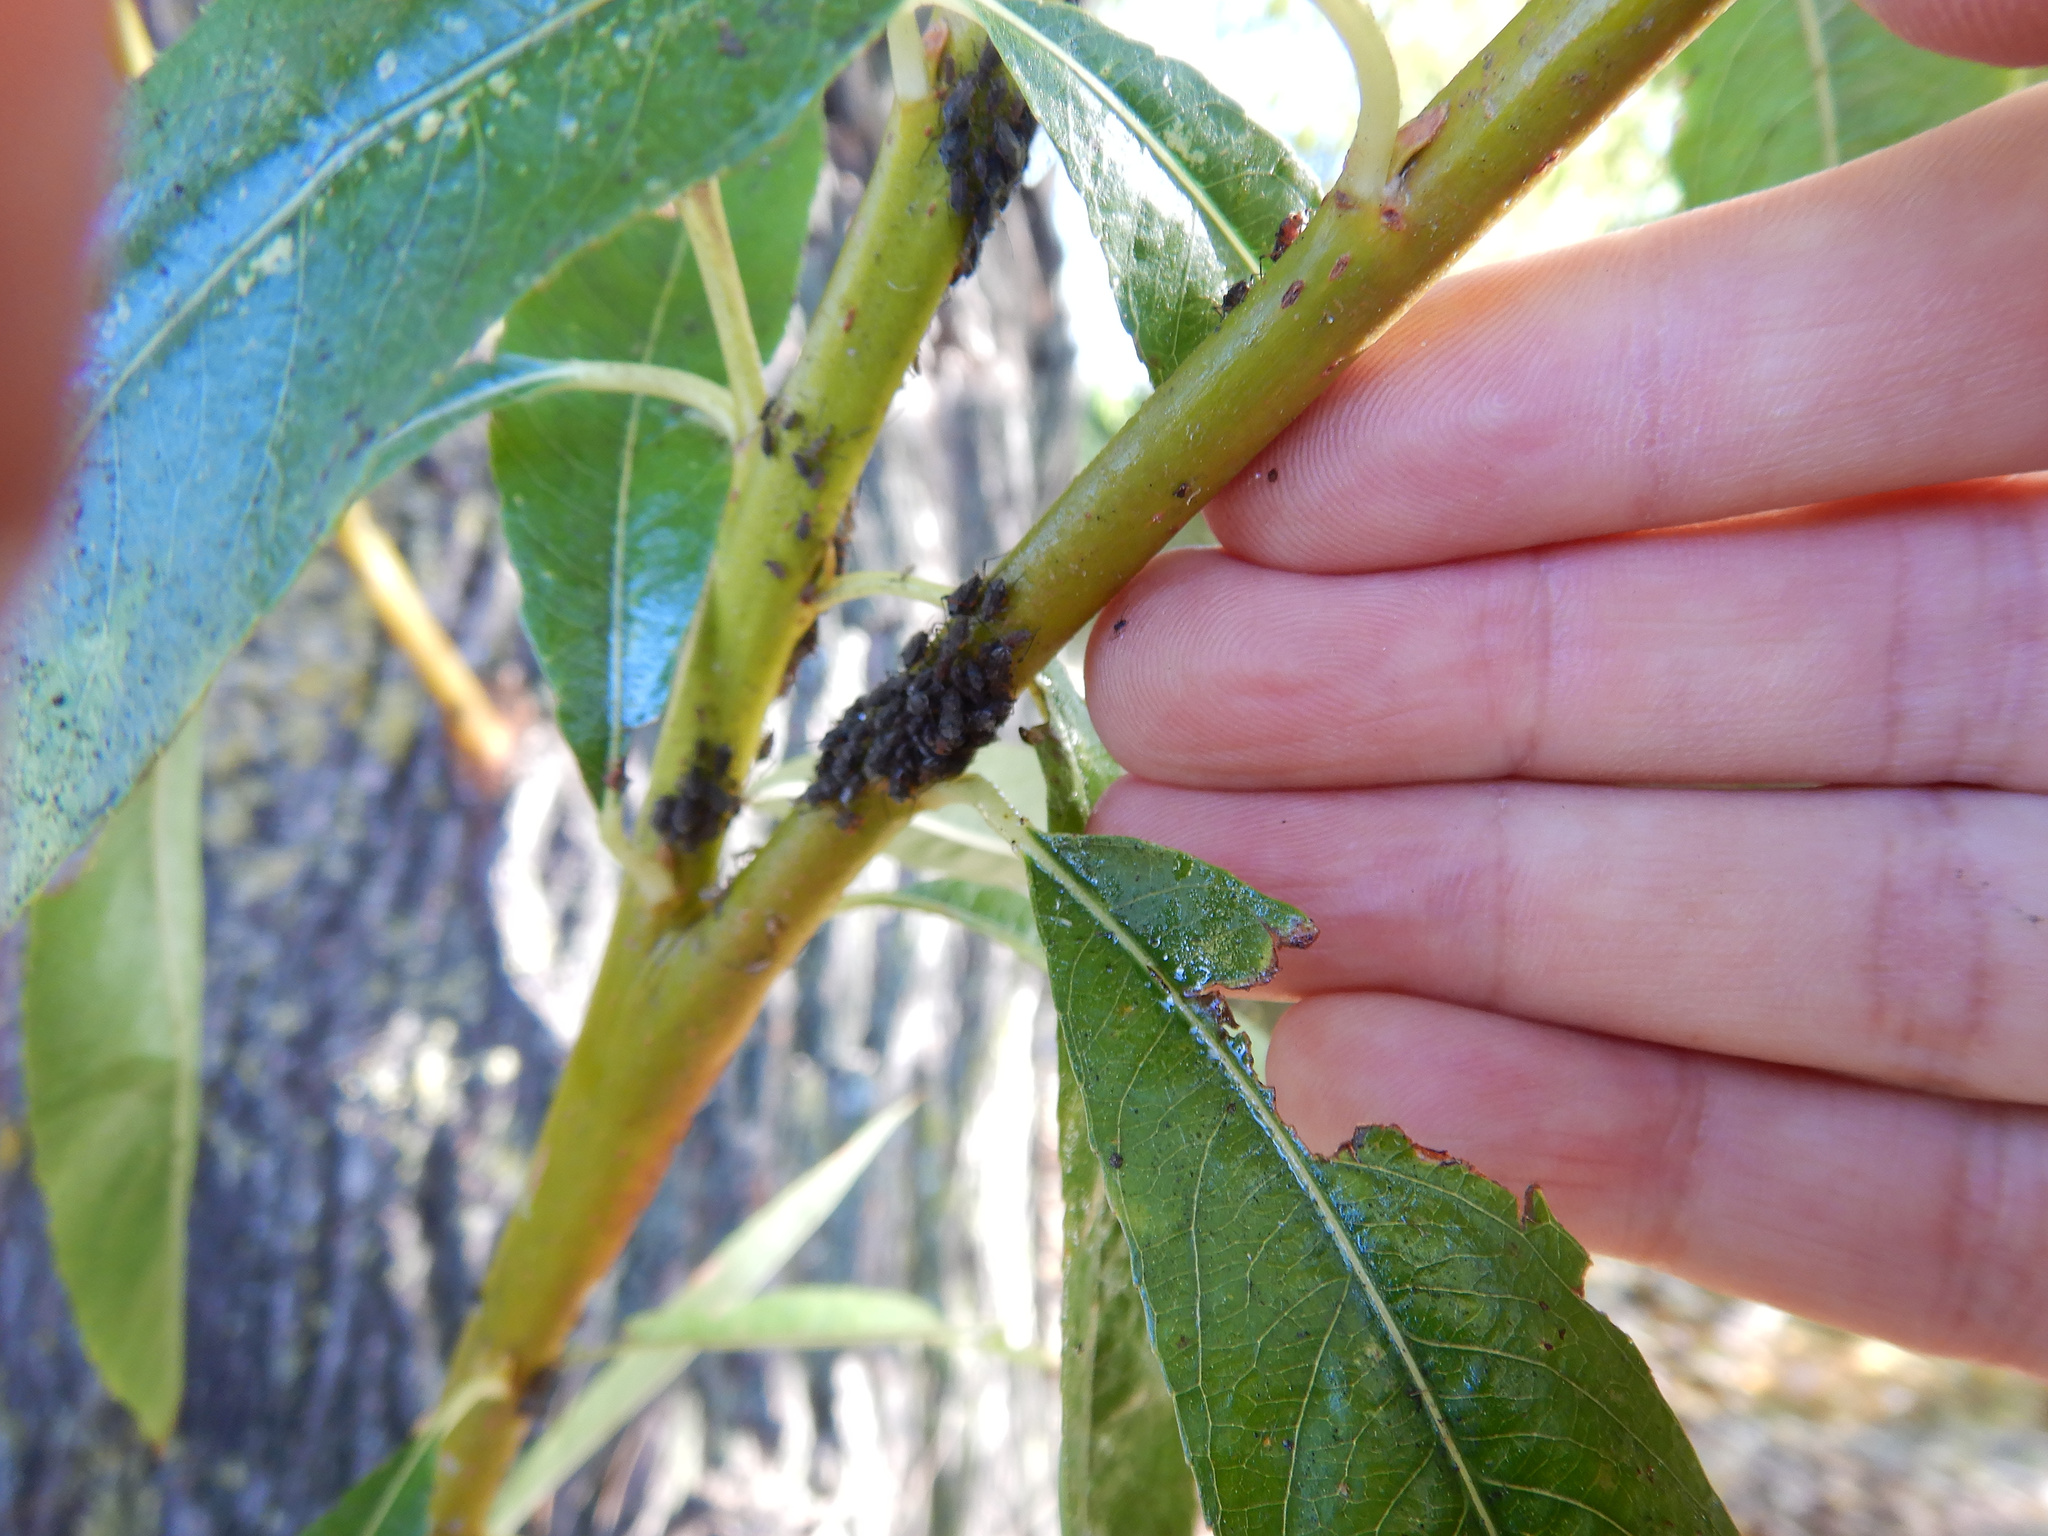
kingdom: Animalia
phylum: Arthropoda
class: Insecta
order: Hemiptera
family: Aphididae
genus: Tuberolachnus
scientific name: Tuberolachnus salignus
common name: Giant willow aphid
